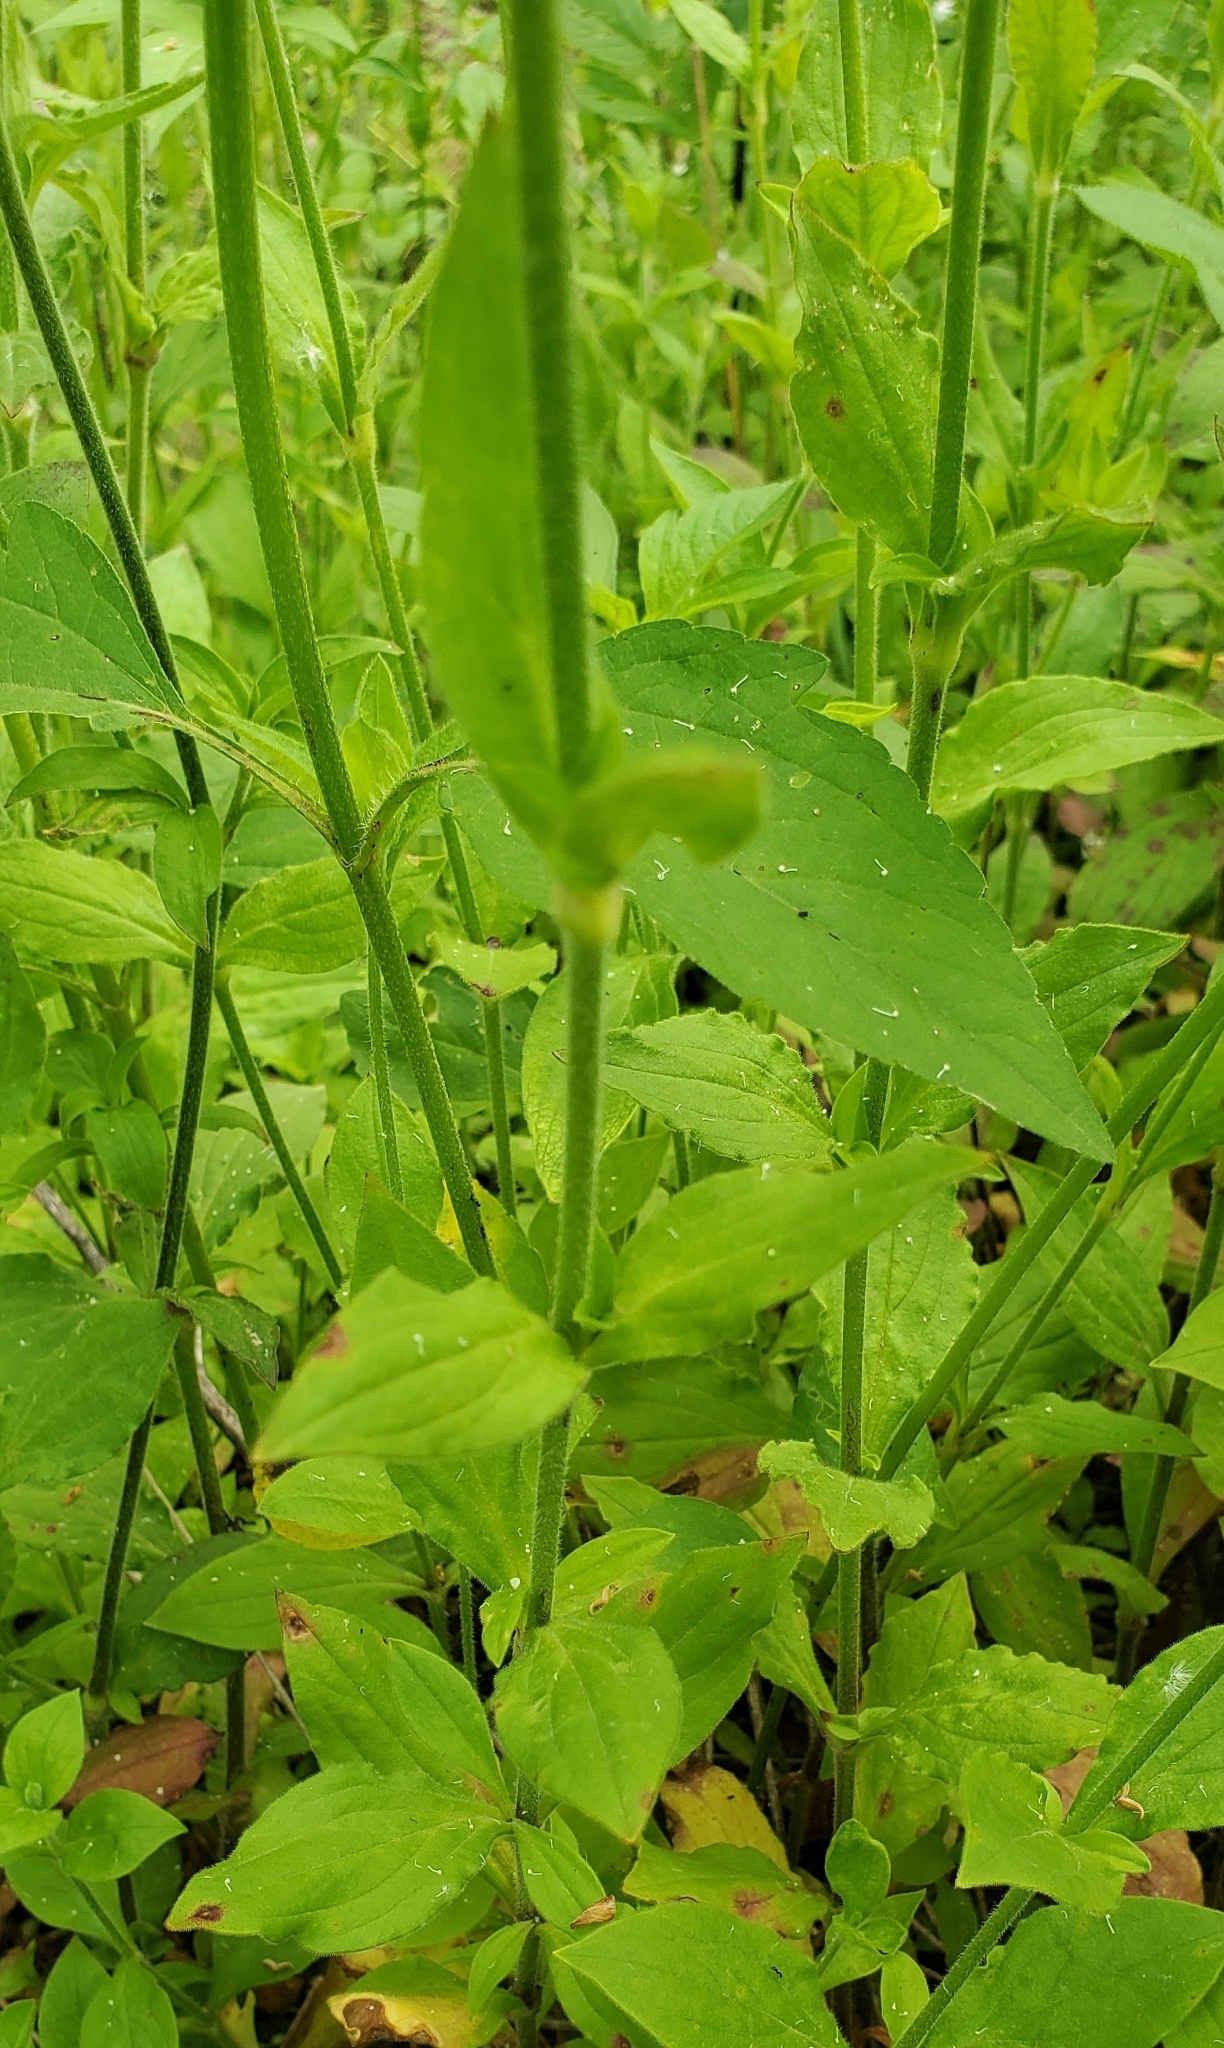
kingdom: Plantae
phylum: Tracheophyta
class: Magnoliopsida
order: Caryophyllales
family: Caryophyllaceae
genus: Silene
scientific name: Silene latifolia
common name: White campion
